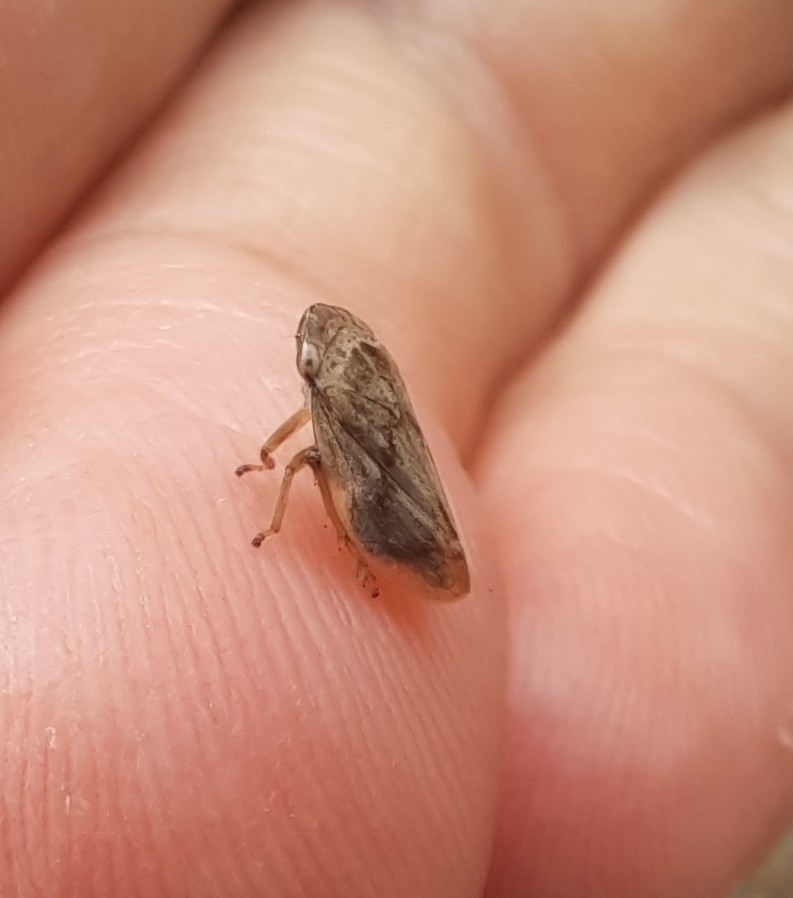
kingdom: Animalia
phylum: Arthropoda
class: Insecta
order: Hemiptera
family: Aphrophoridae
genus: Philaenus
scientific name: Philaenus spumarius
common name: Meadow spittlebug
